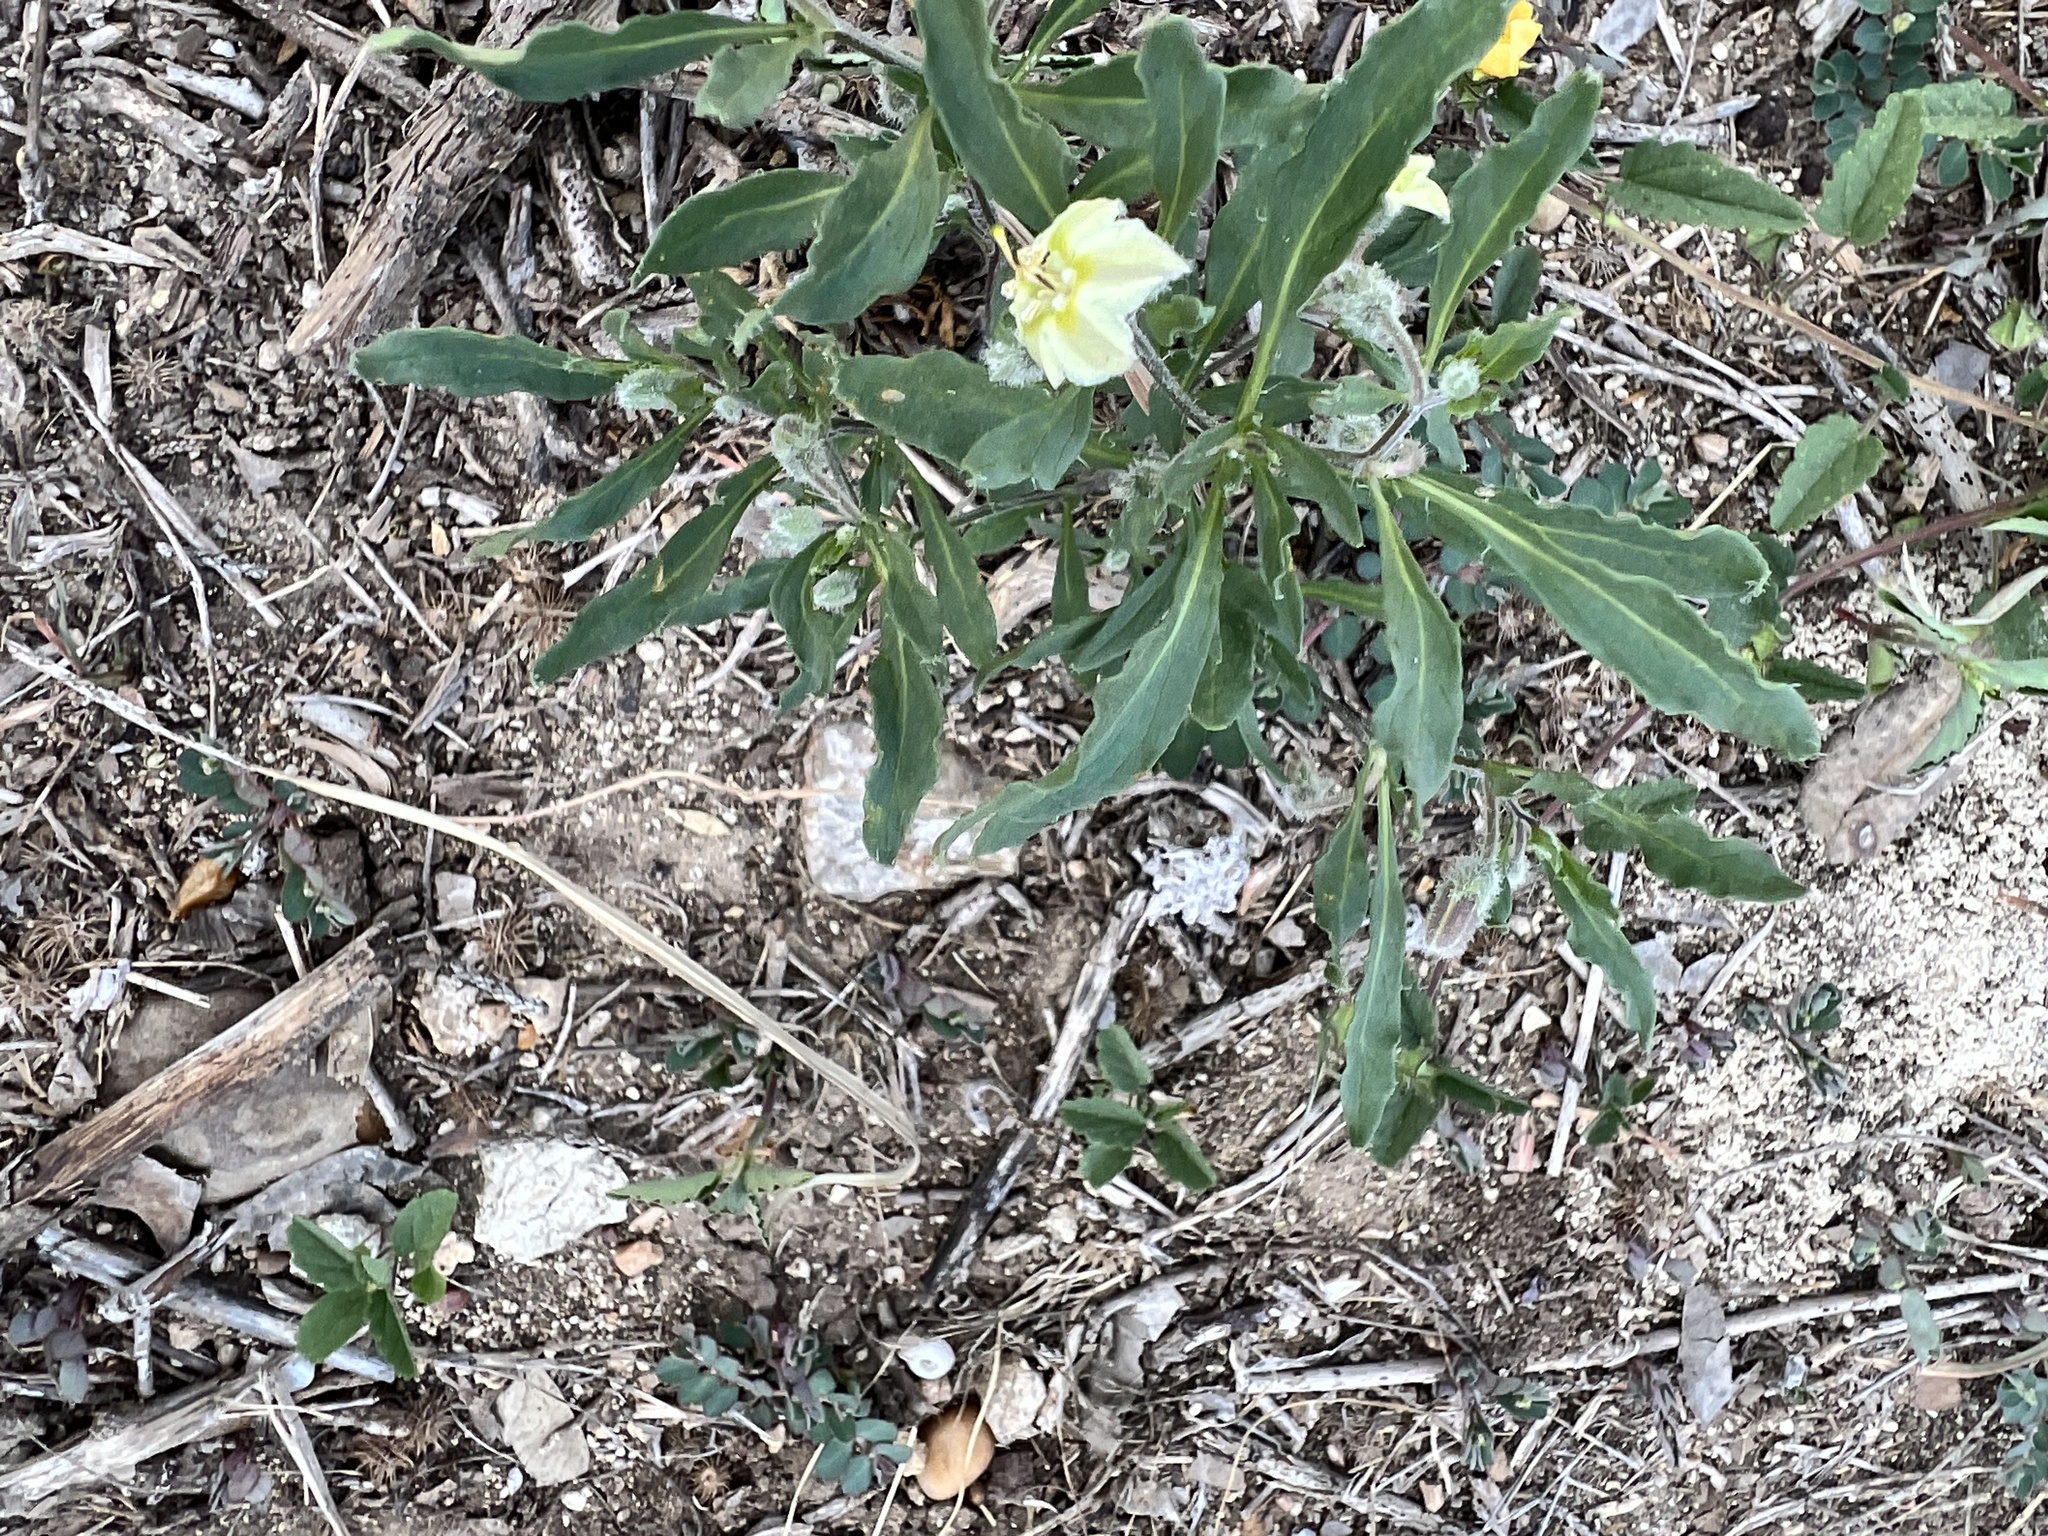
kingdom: Plantae
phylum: Tracheophyta
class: Magnoliopsida
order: Solanales
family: Solanaceae
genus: Chamaesaracha
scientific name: Chamaesaracha edwardsiana
